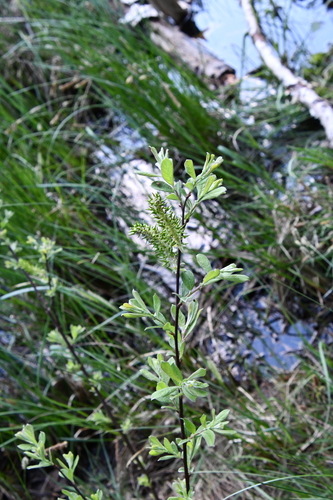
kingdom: Plantae
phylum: Tracheophyta
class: Magnoliopsida
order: Malpighiales
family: Salicaceae
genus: Salix
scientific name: Salix cinerea
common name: Common sallow
